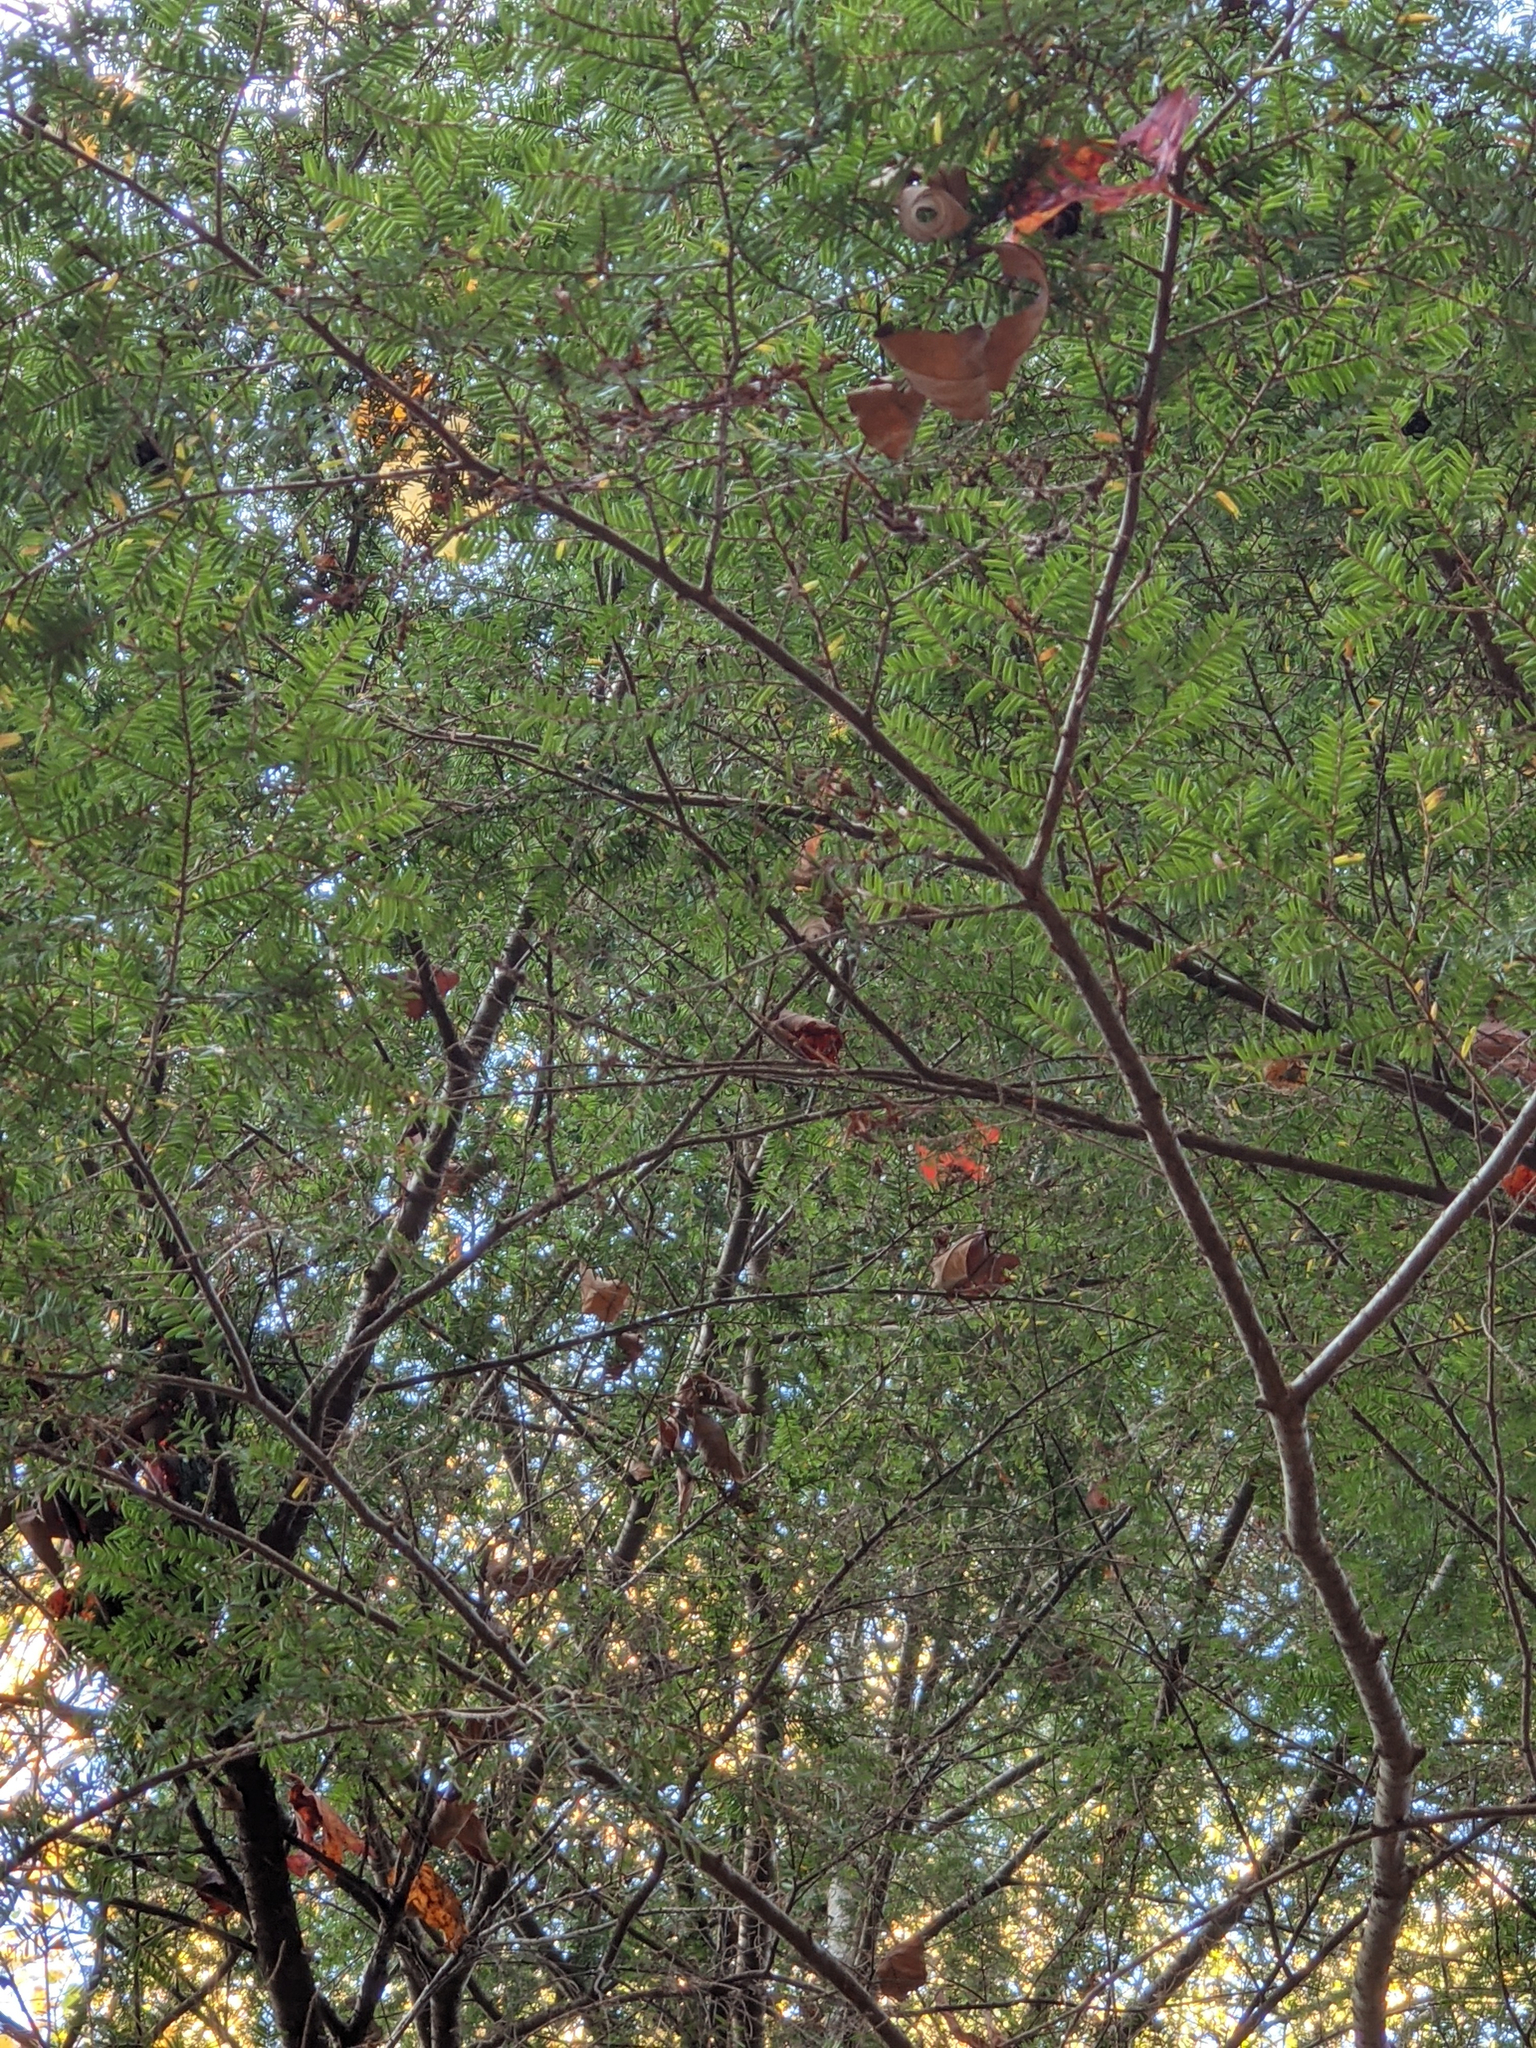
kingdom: Plantae
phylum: Tracheophyta
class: Pinopsida
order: Pinales
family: Pinaceae
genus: Tsuga
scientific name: Tsuga canadensis
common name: Eastern hemlock
